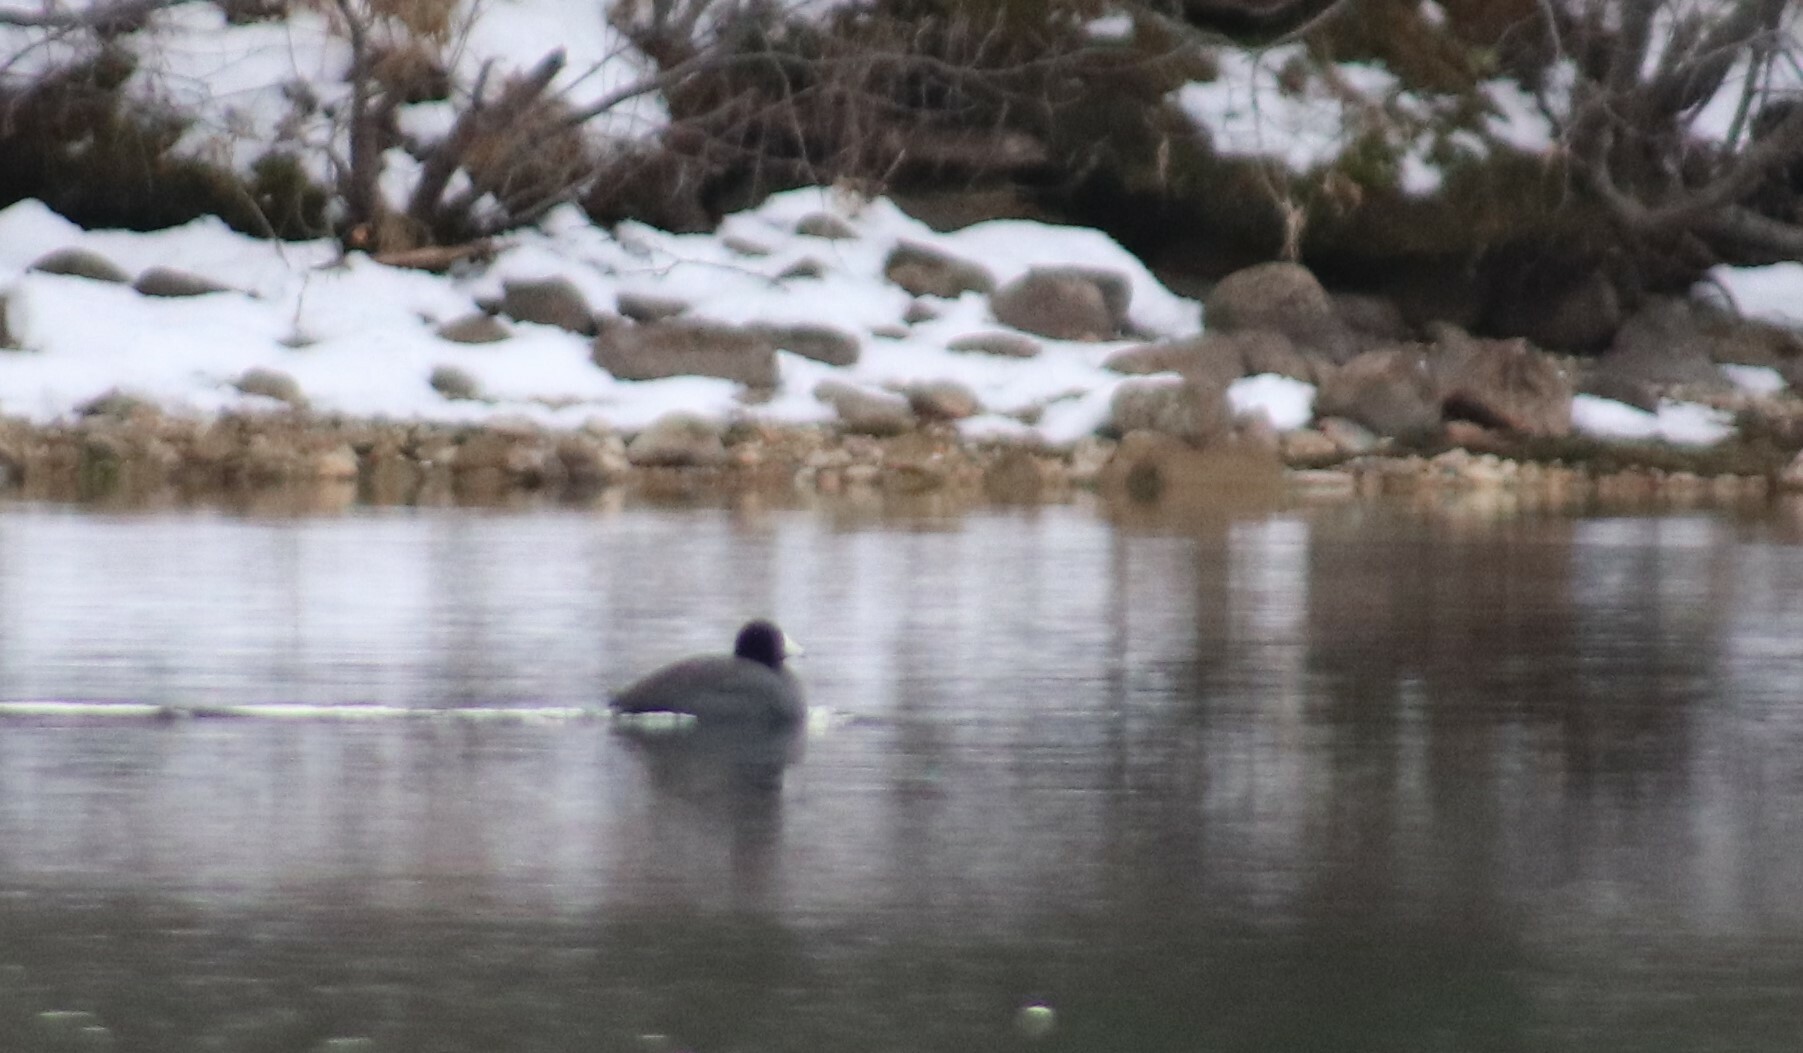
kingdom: Animalia
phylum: Chordata
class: Aves
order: Gruiformes
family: Rallidae
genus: Fulica
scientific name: Fulica americana
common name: American coot
